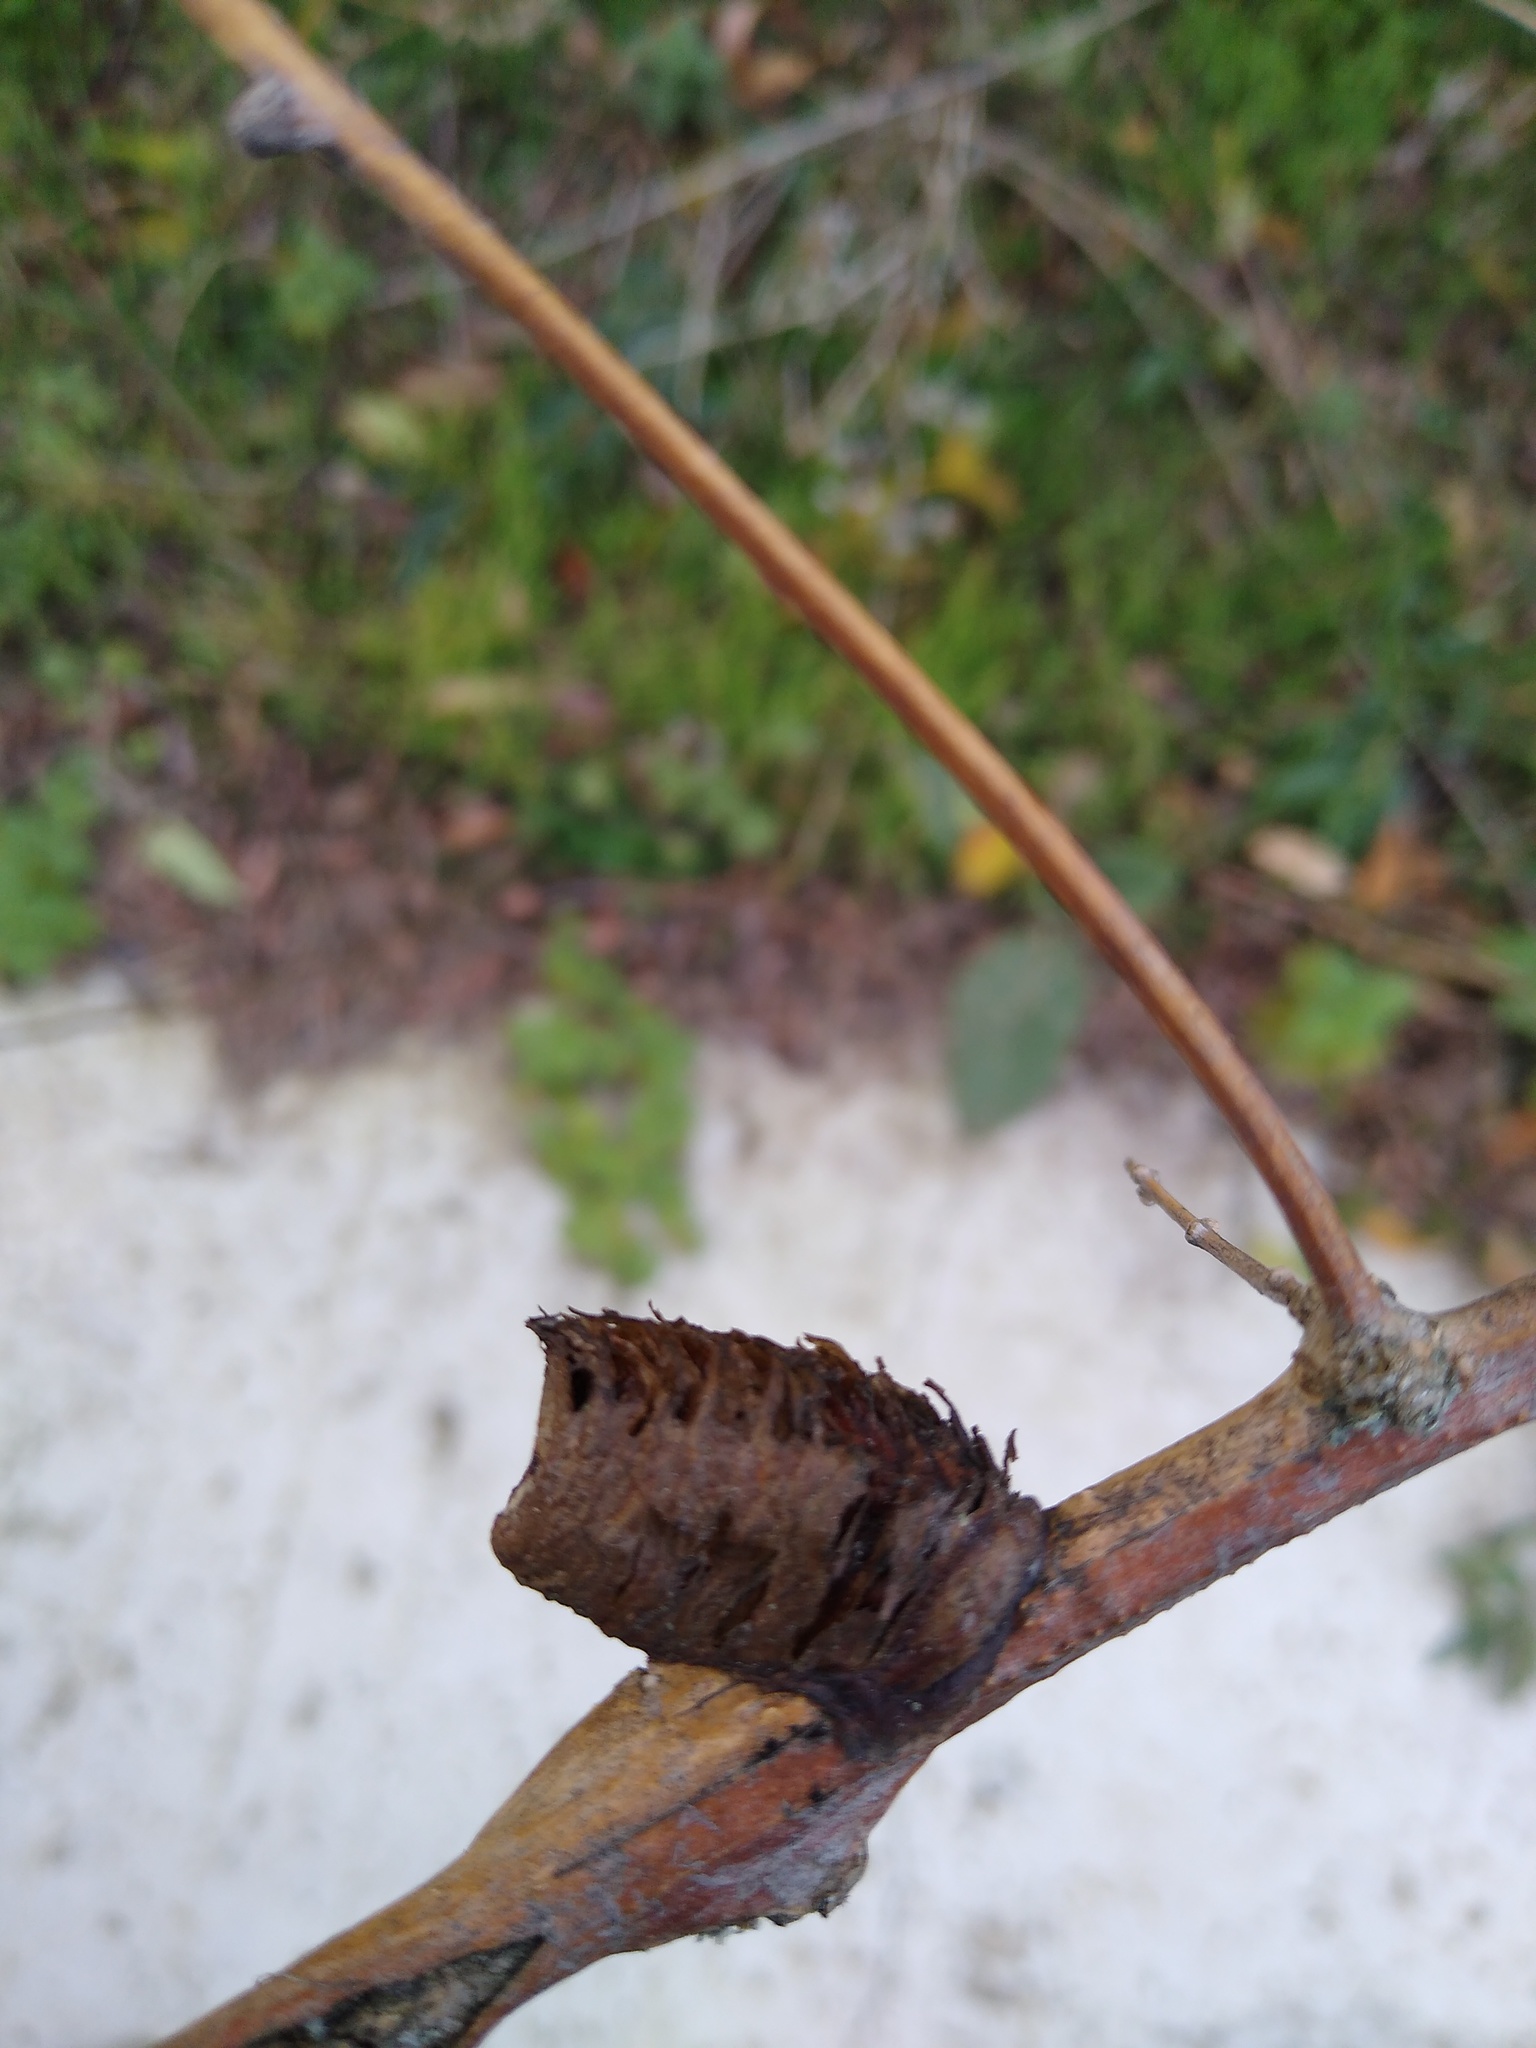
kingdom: Animalia
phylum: Arthropoda
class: Insecta
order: Mantodea
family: Mantidae
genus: Hierodula
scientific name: Hierodula transcaucasica
